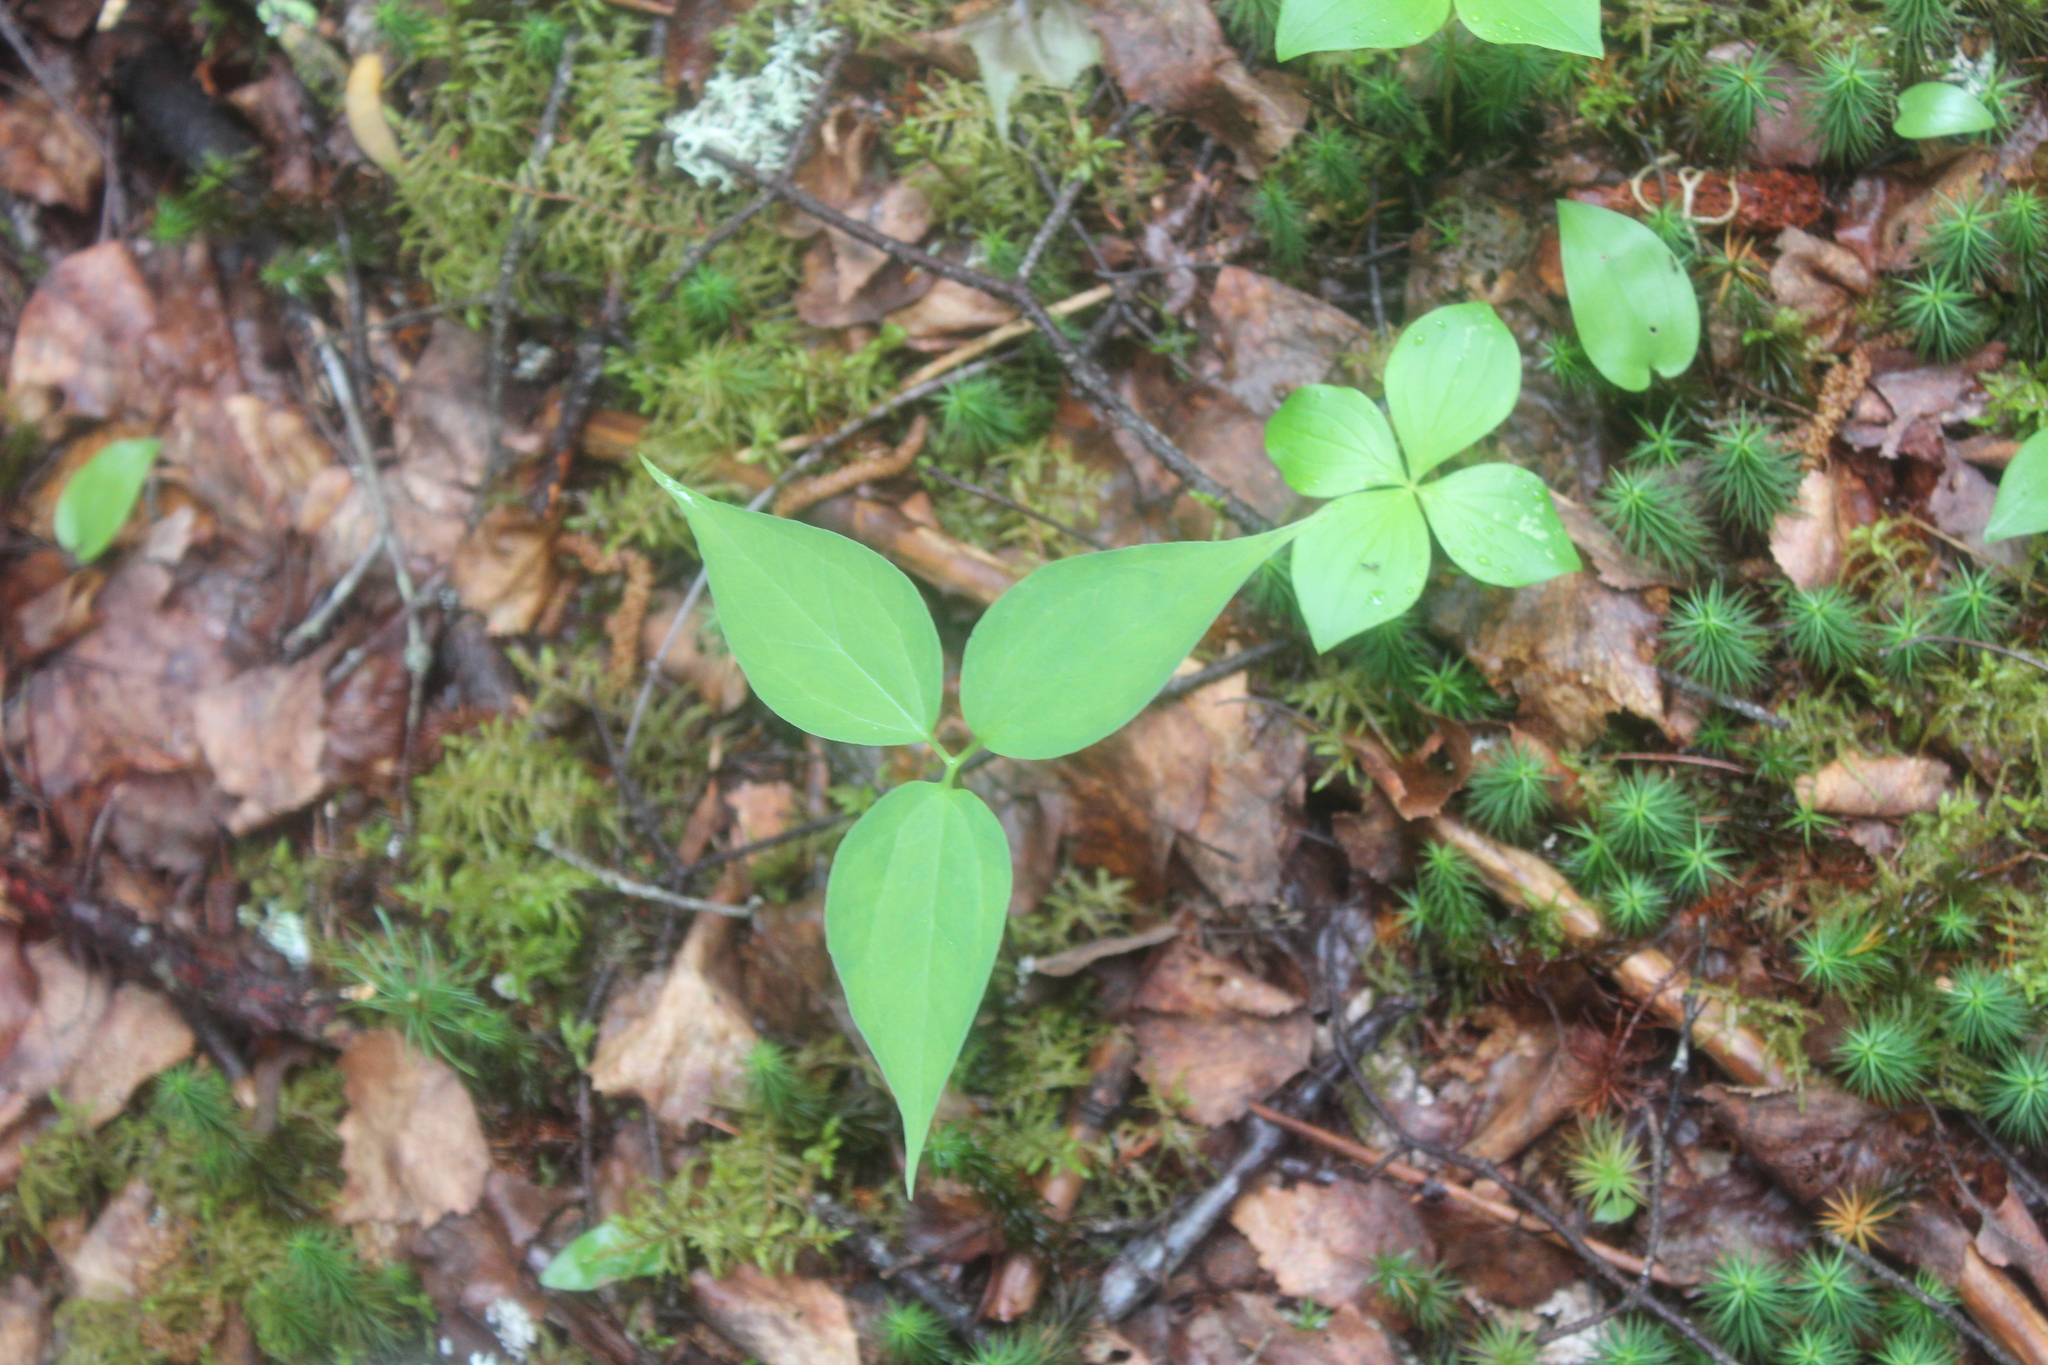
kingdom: Plantae
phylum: Tracheophyta
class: Liliopsida
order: Liliales
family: Melanthiaceae
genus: Trillium
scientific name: Trillium undulatum
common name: Paint trillium
